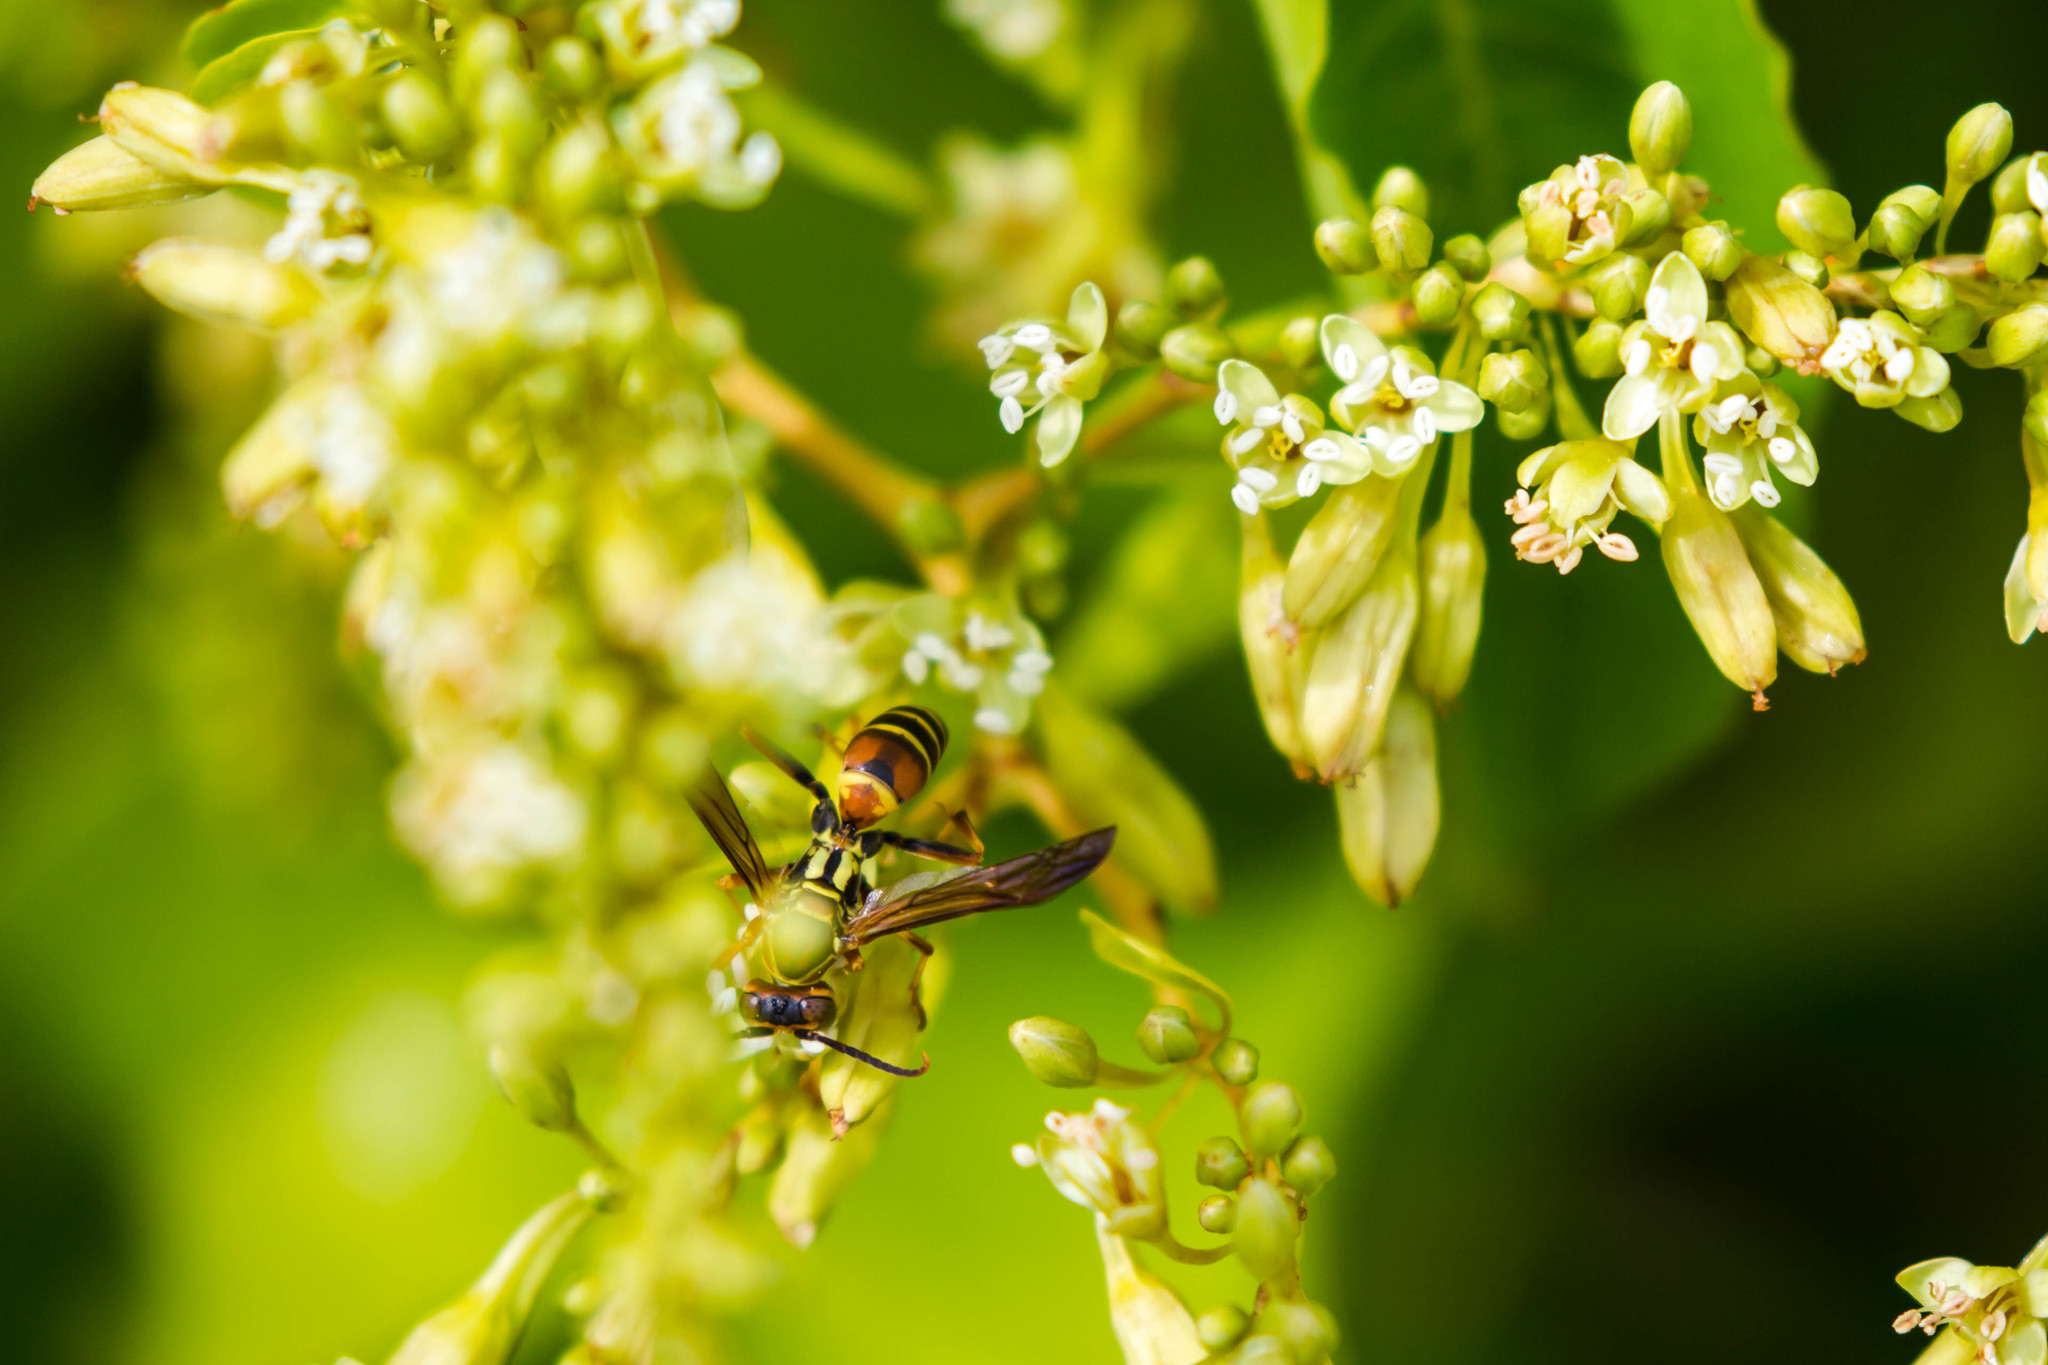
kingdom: Animalia
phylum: Arthropoda
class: Insecta
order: Hymenoptera
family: Eumenidae
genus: Polistes
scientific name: Polistes dorsalis
